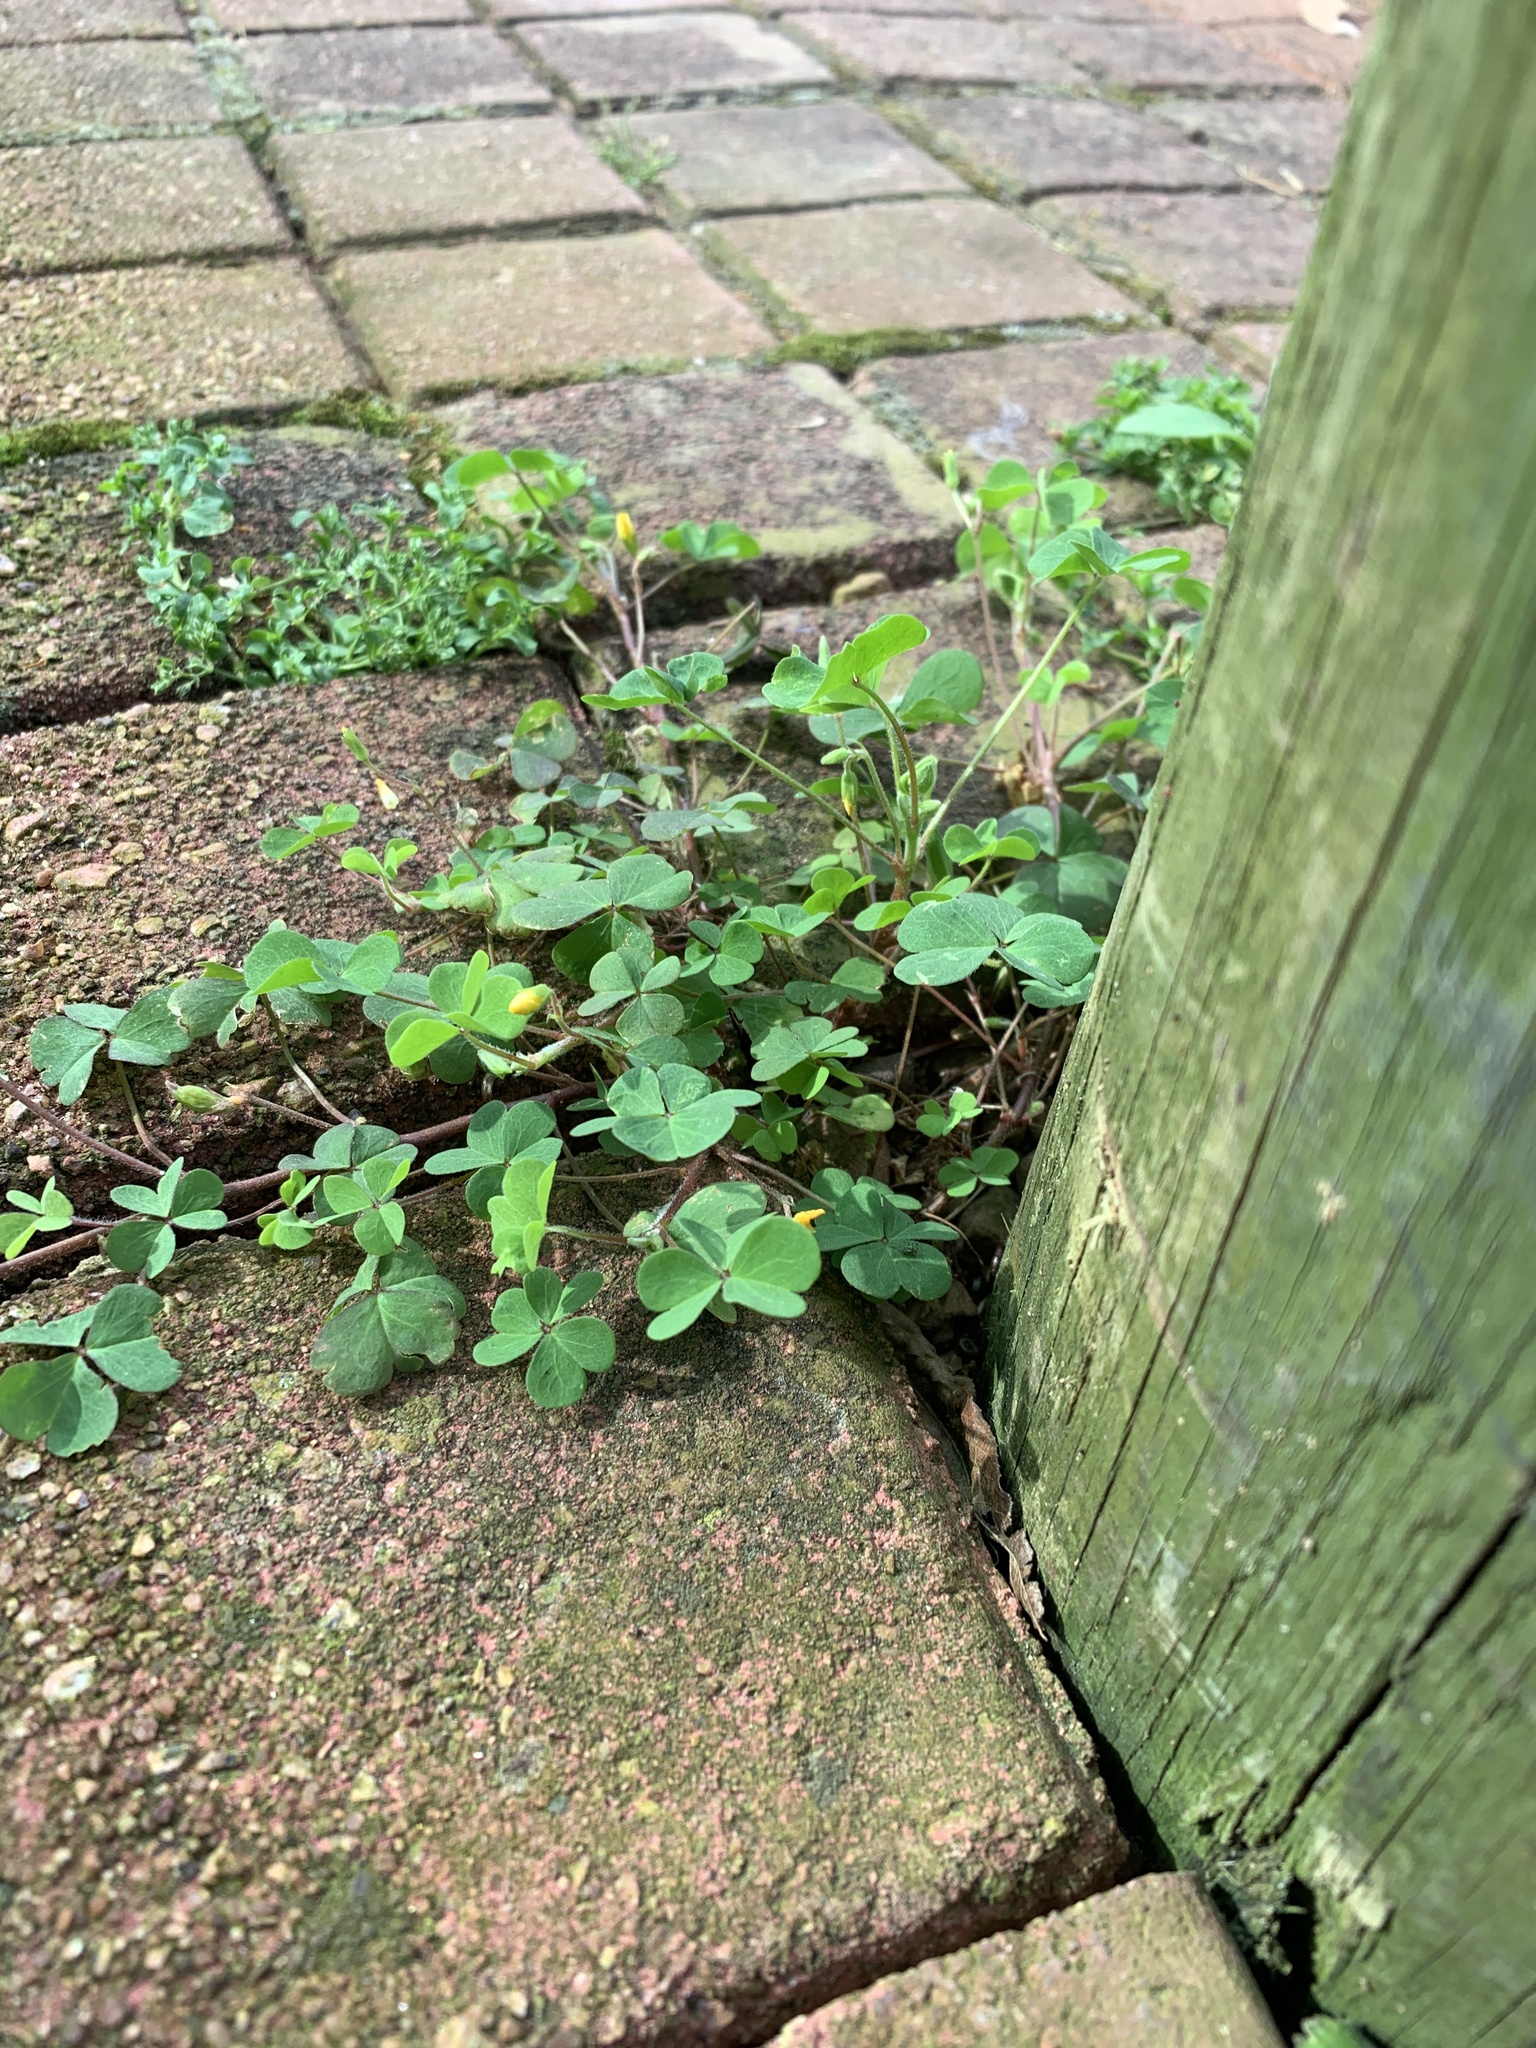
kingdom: Plantae
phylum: Tracheophyta
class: Magnoliopsida
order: Oxalidales
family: Oxalidaceae
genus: Oxalis
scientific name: Oxalis corniculata
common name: Procumbent yellow-sorrel
